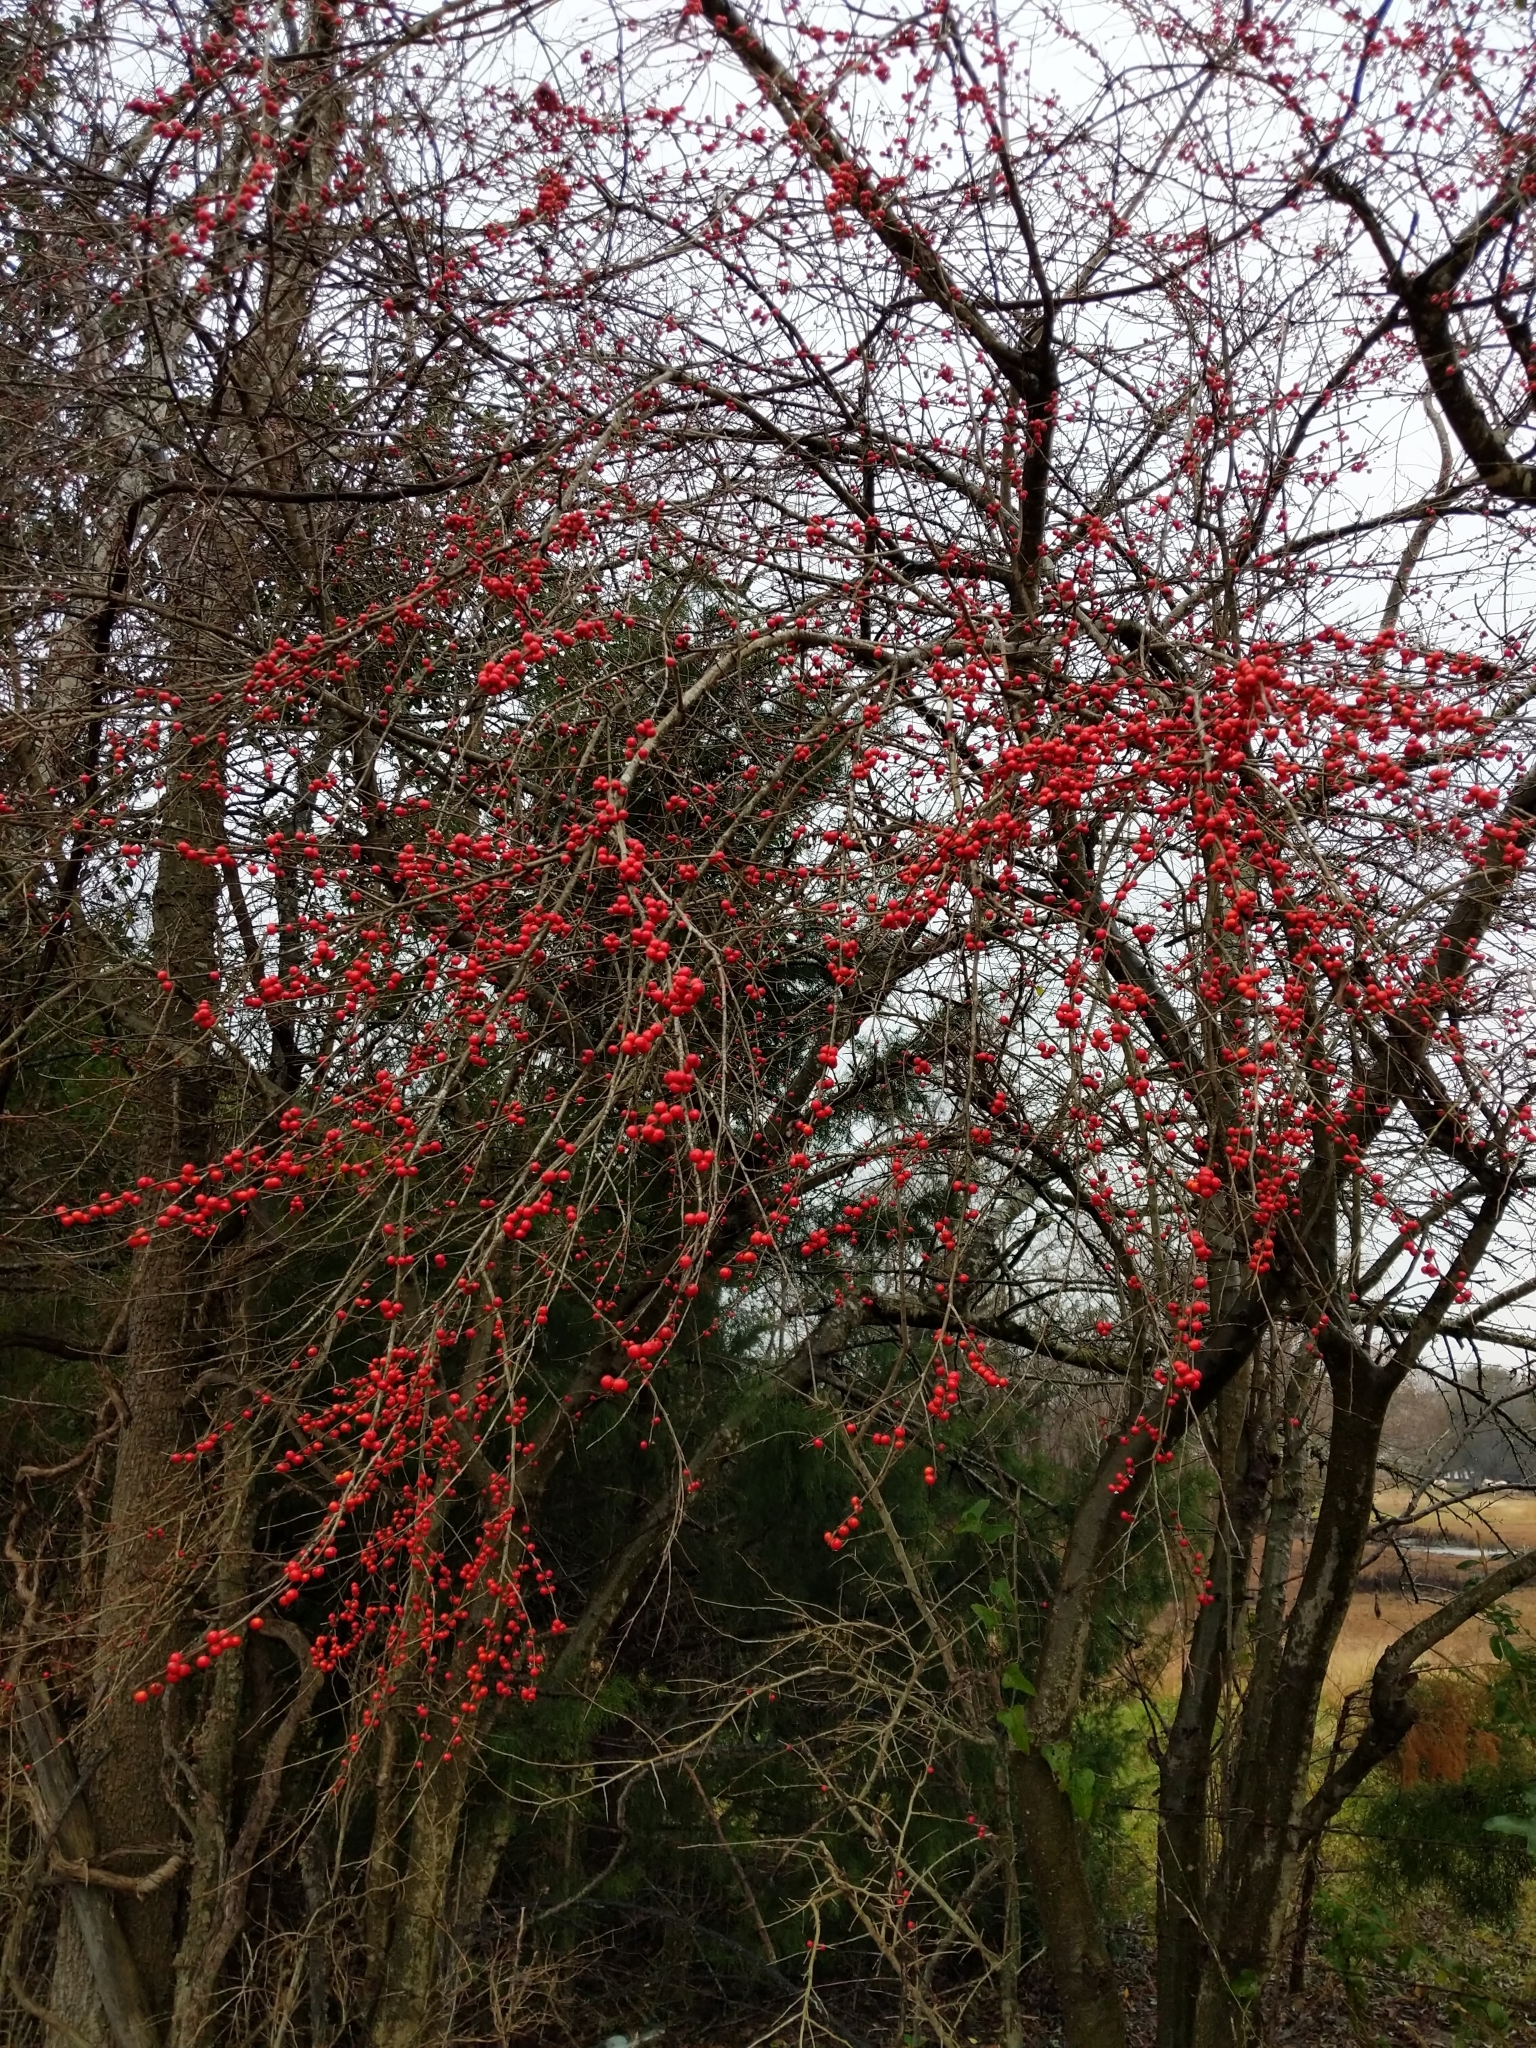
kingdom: Plantae
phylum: Tracheophyta
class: Magnoliopsida
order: Aquifoliales
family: Aquifoliaceae
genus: Ilex
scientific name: Ilex decidua
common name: Possum-haw
